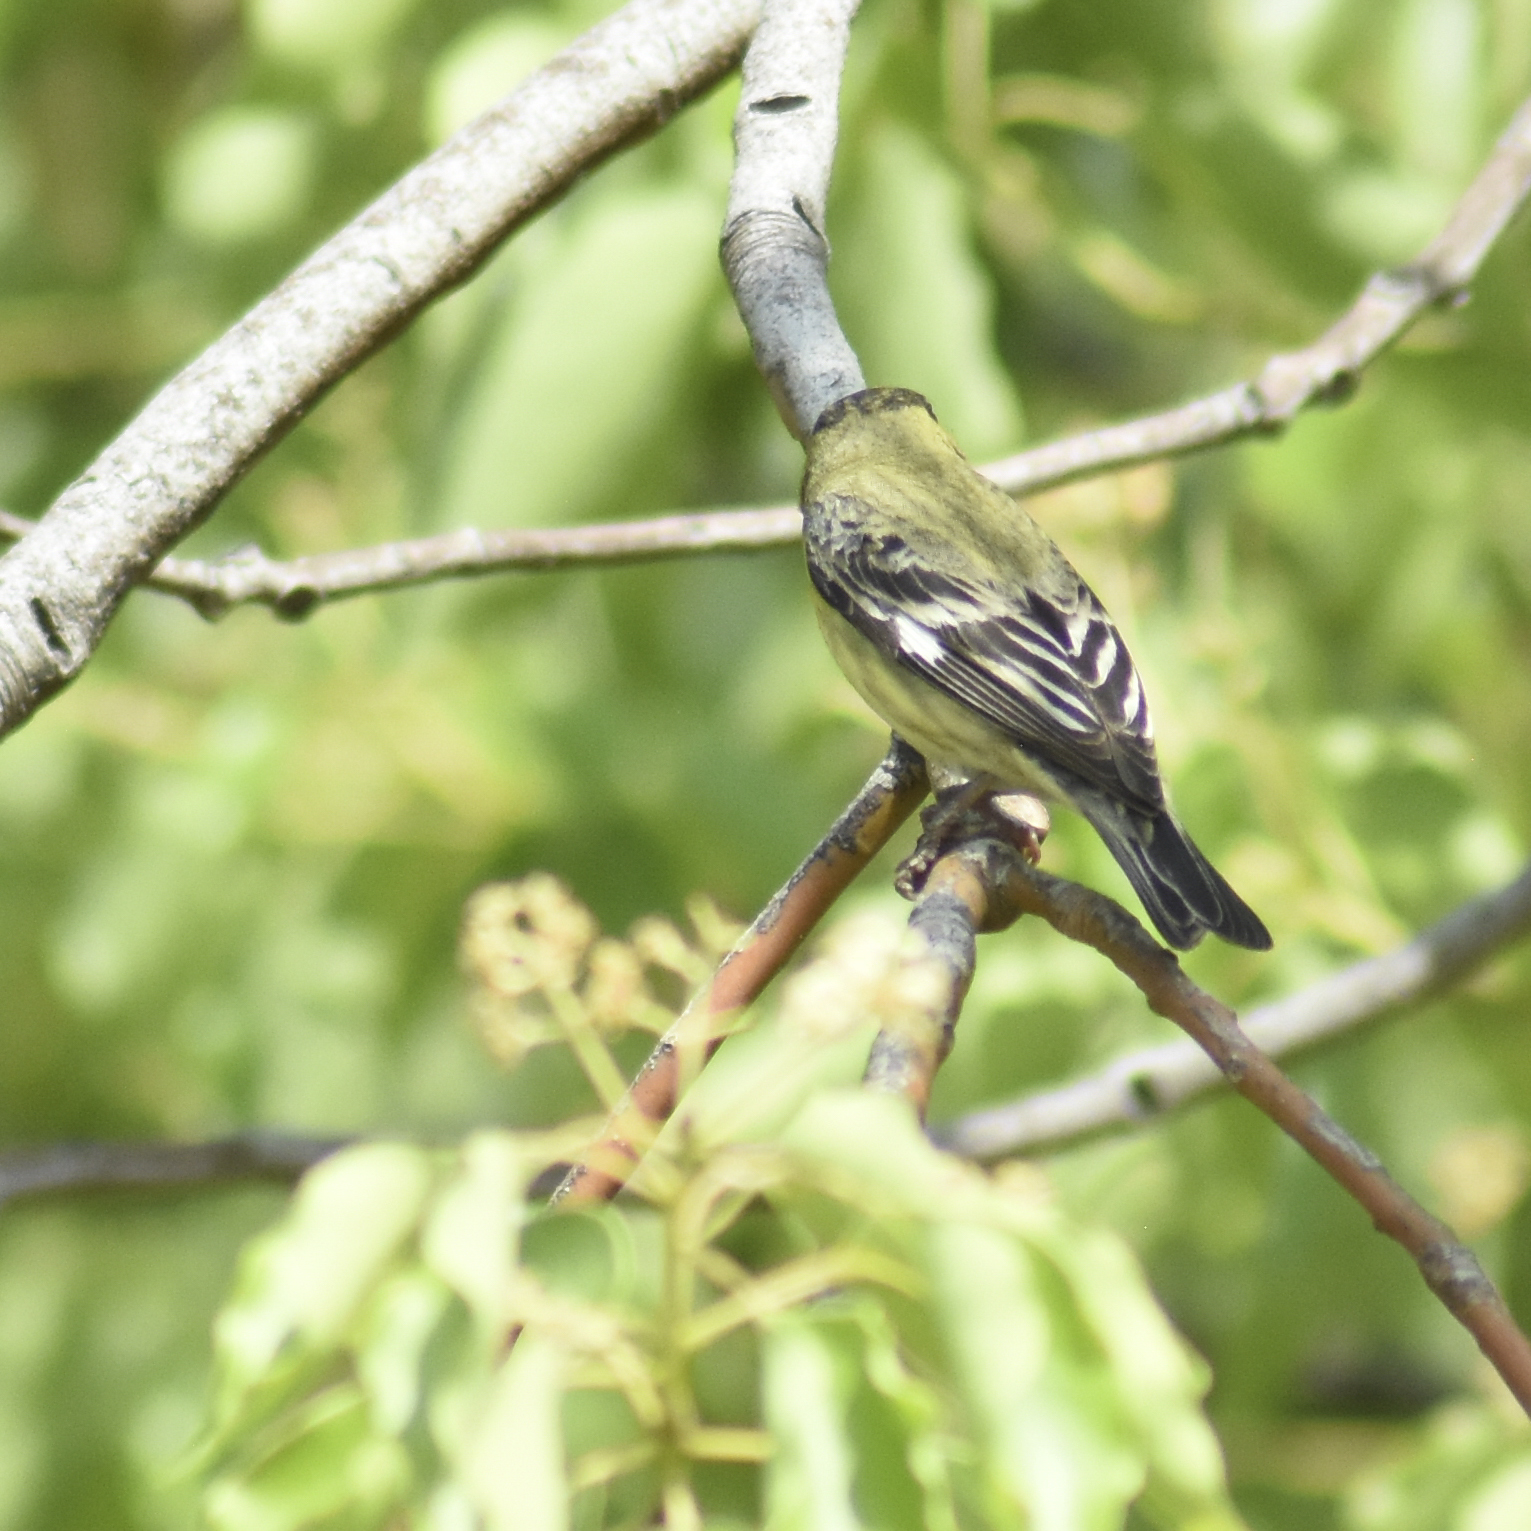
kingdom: Animalia
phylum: Chordata
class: Aves
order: Passeriformes
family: Fringillidae
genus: Spinus
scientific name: Spinus psaltria
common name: Lesser goldfinch
